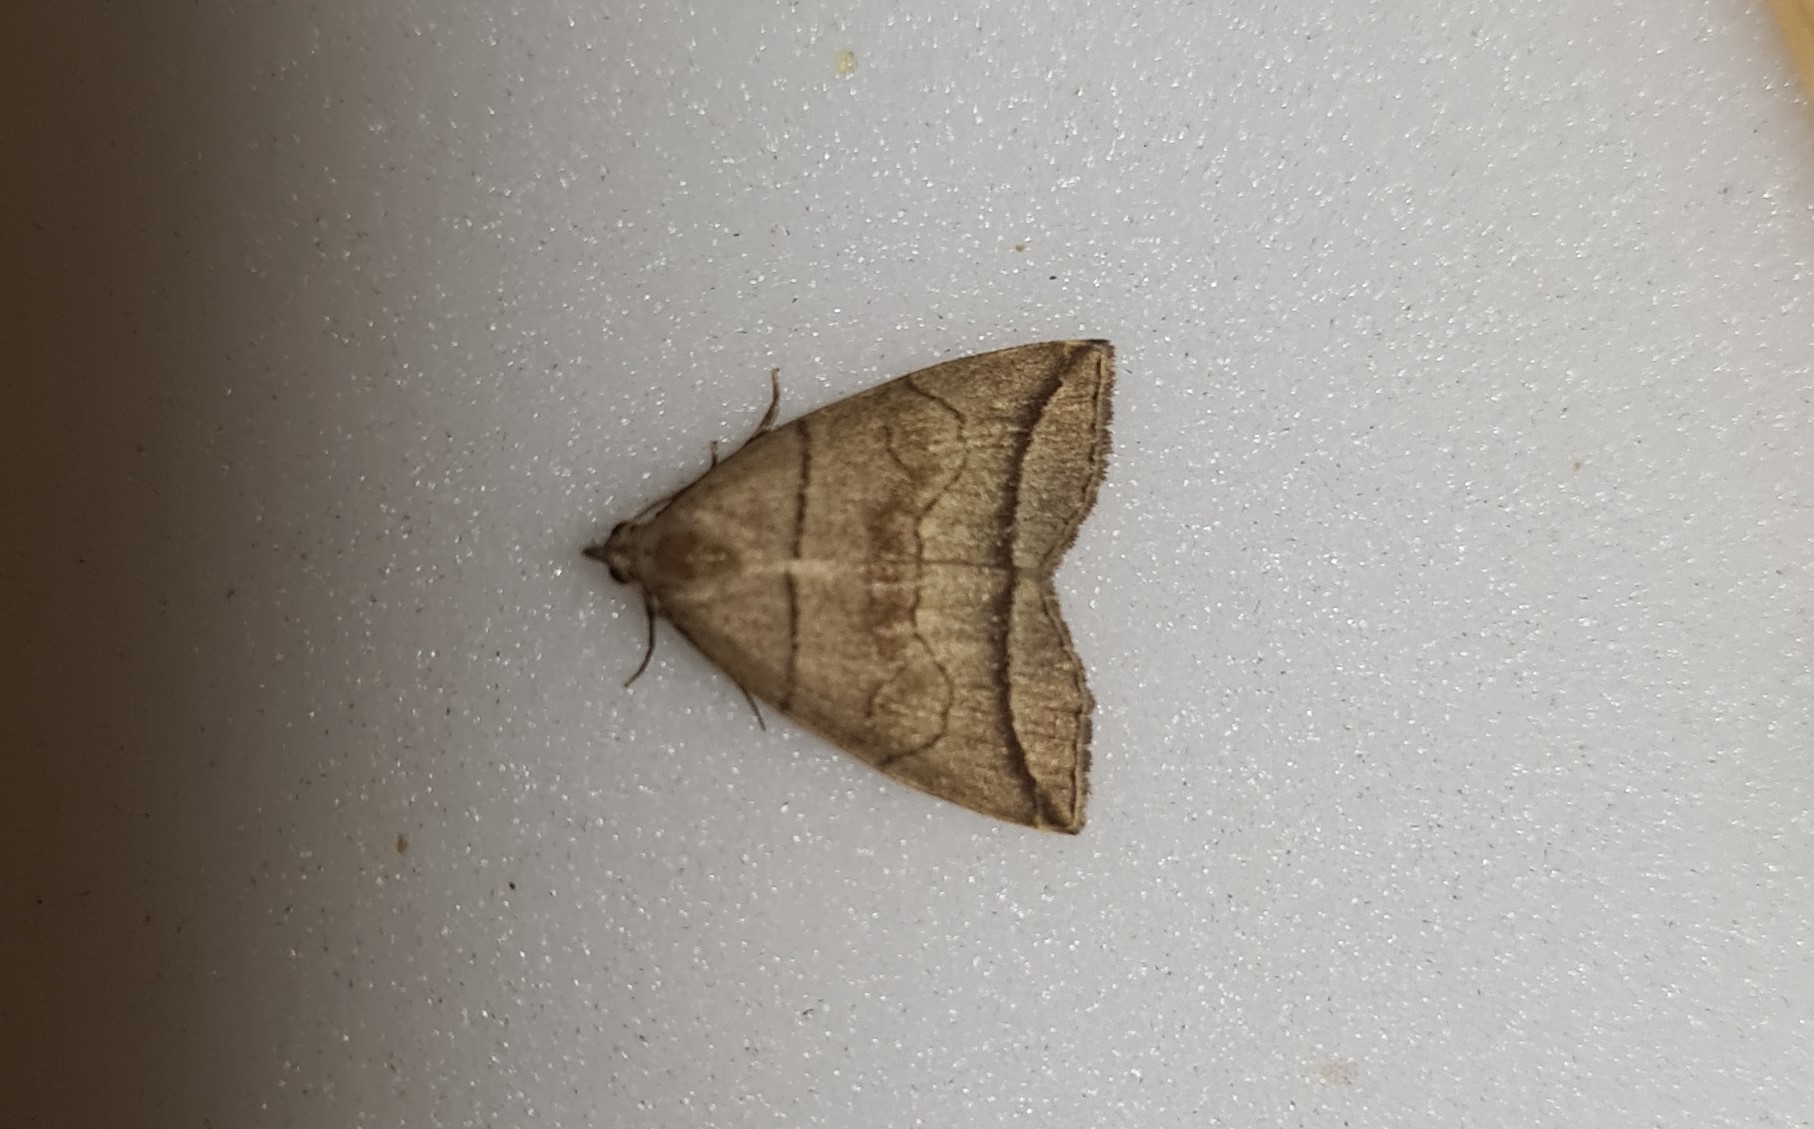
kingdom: Animalia
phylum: Arthropoda
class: Insecta
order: Lepidoptera
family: Erebidae
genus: Herminia
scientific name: Herminia grisealis
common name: Small fan-foot
